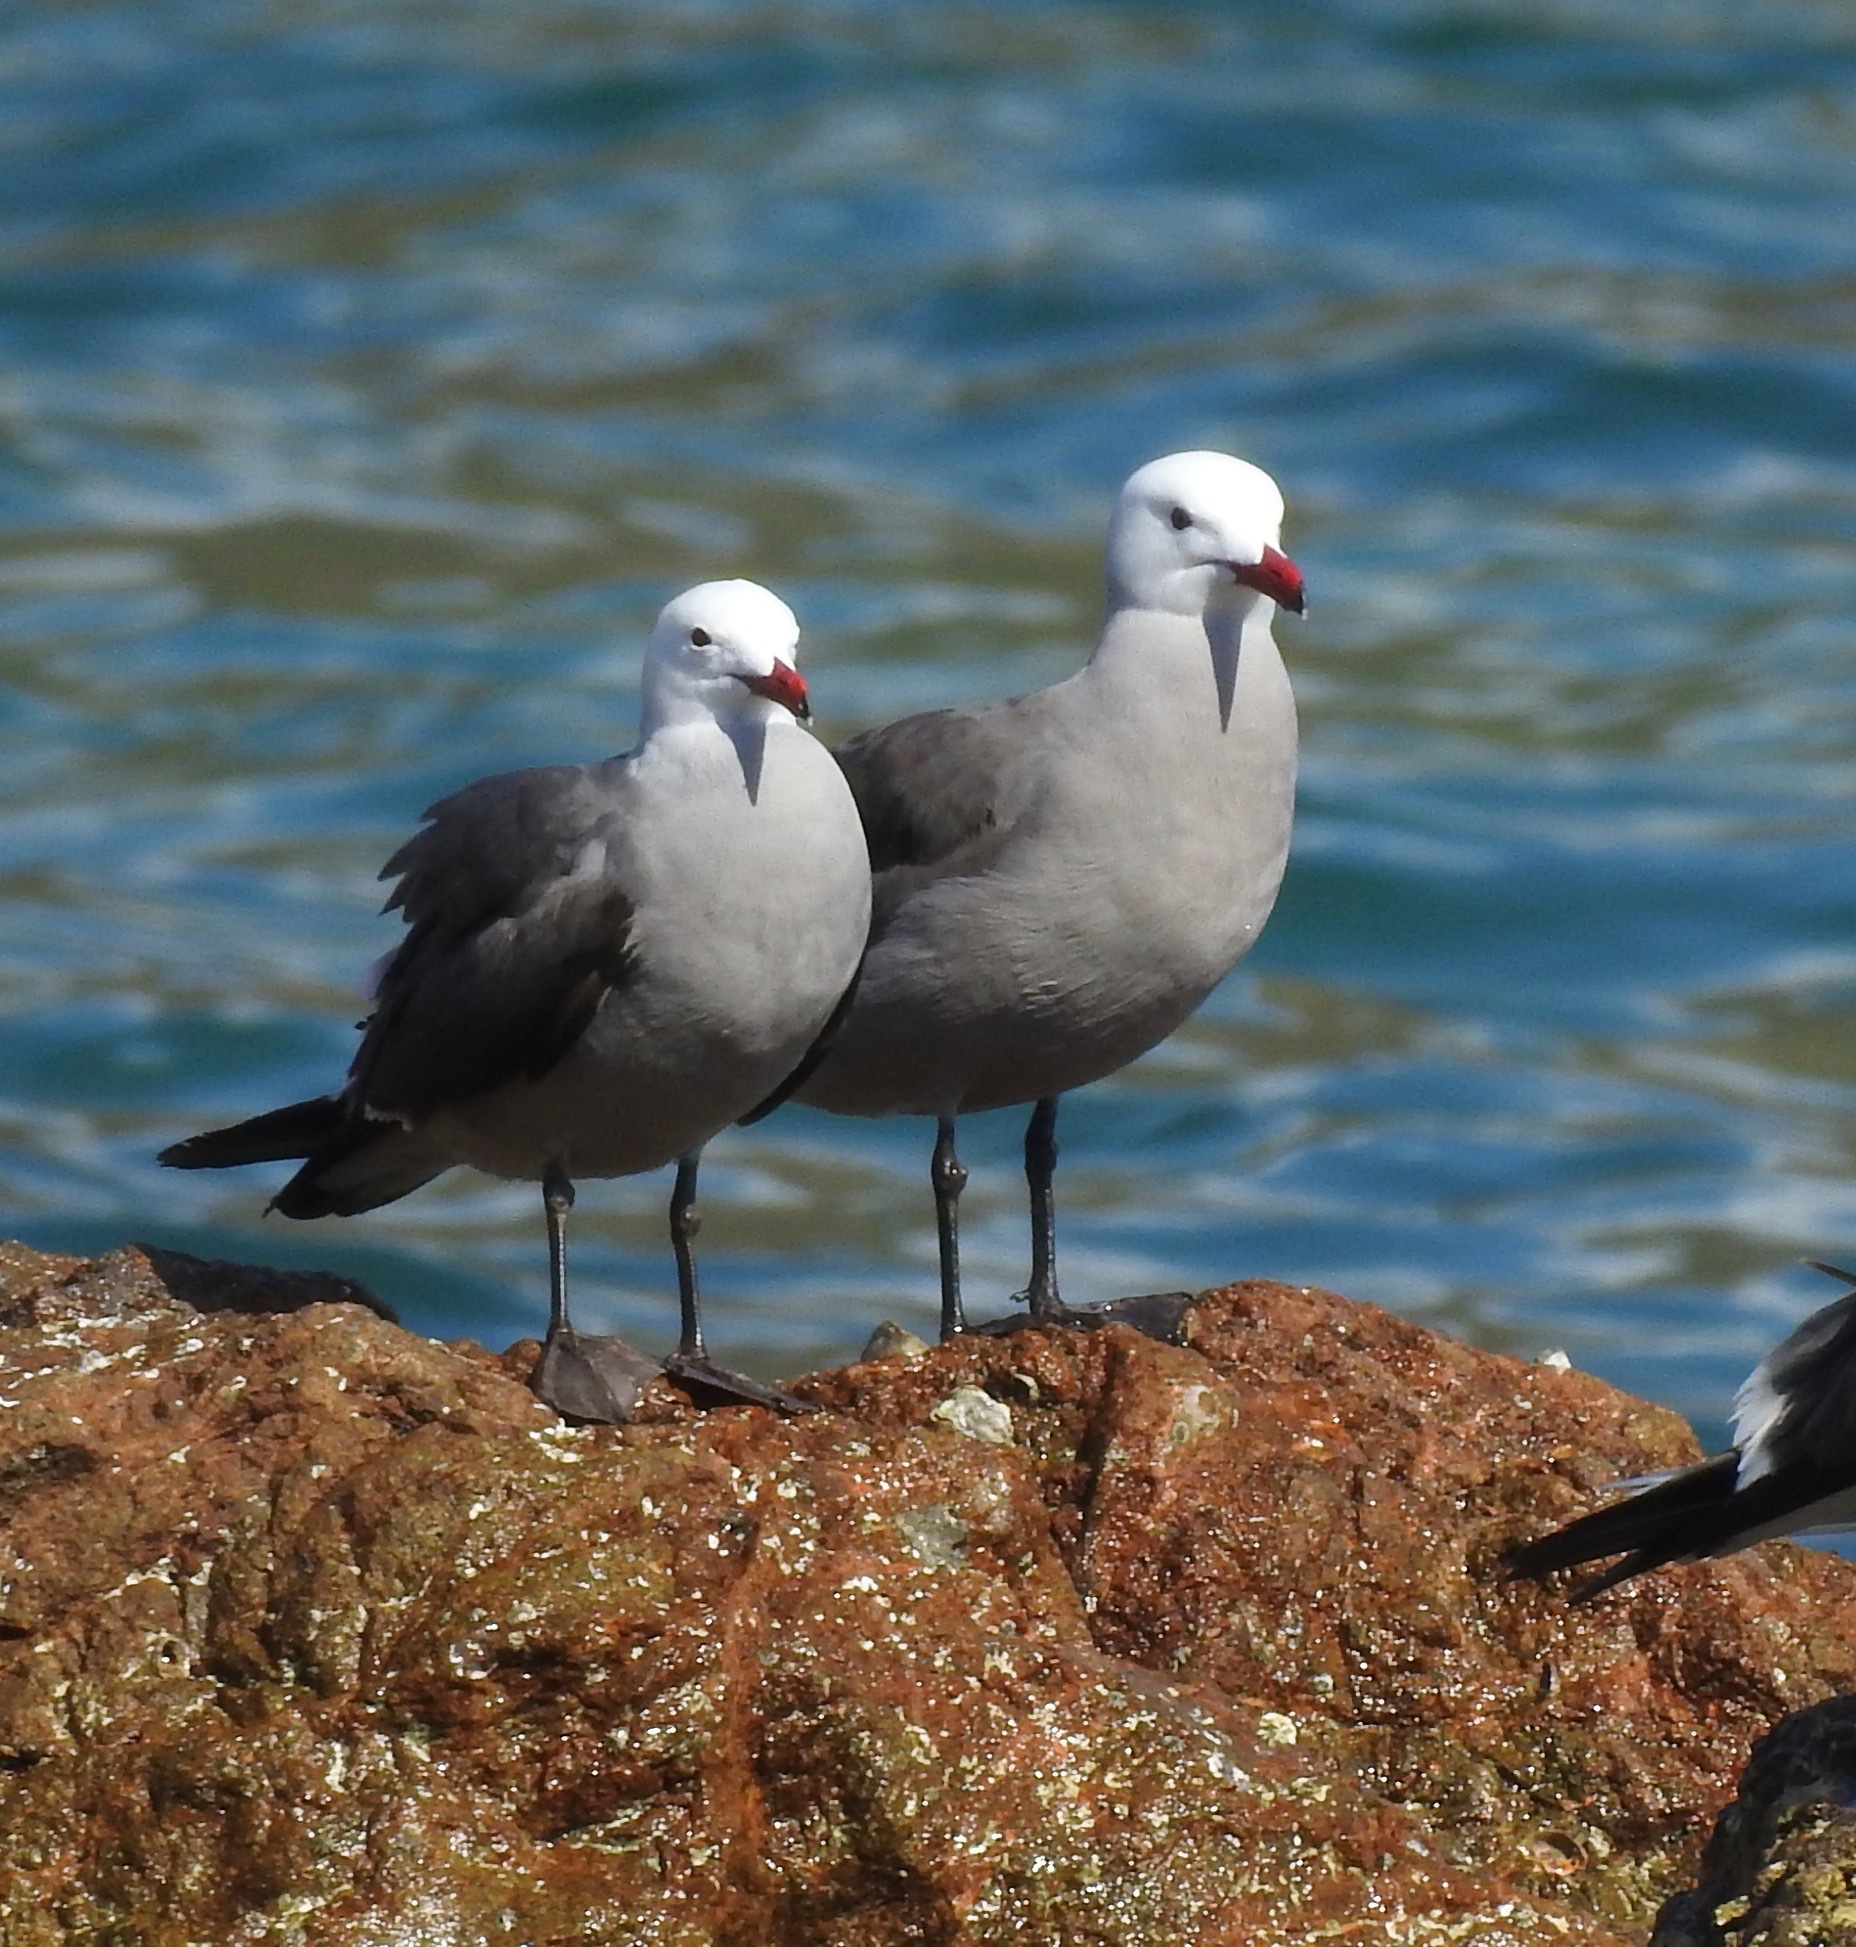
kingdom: Animalia
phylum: Chordata
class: Aves
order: Charadriiformes
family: Laridae
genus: Larus
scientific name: Larus heermanni
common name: Heermann's gull
